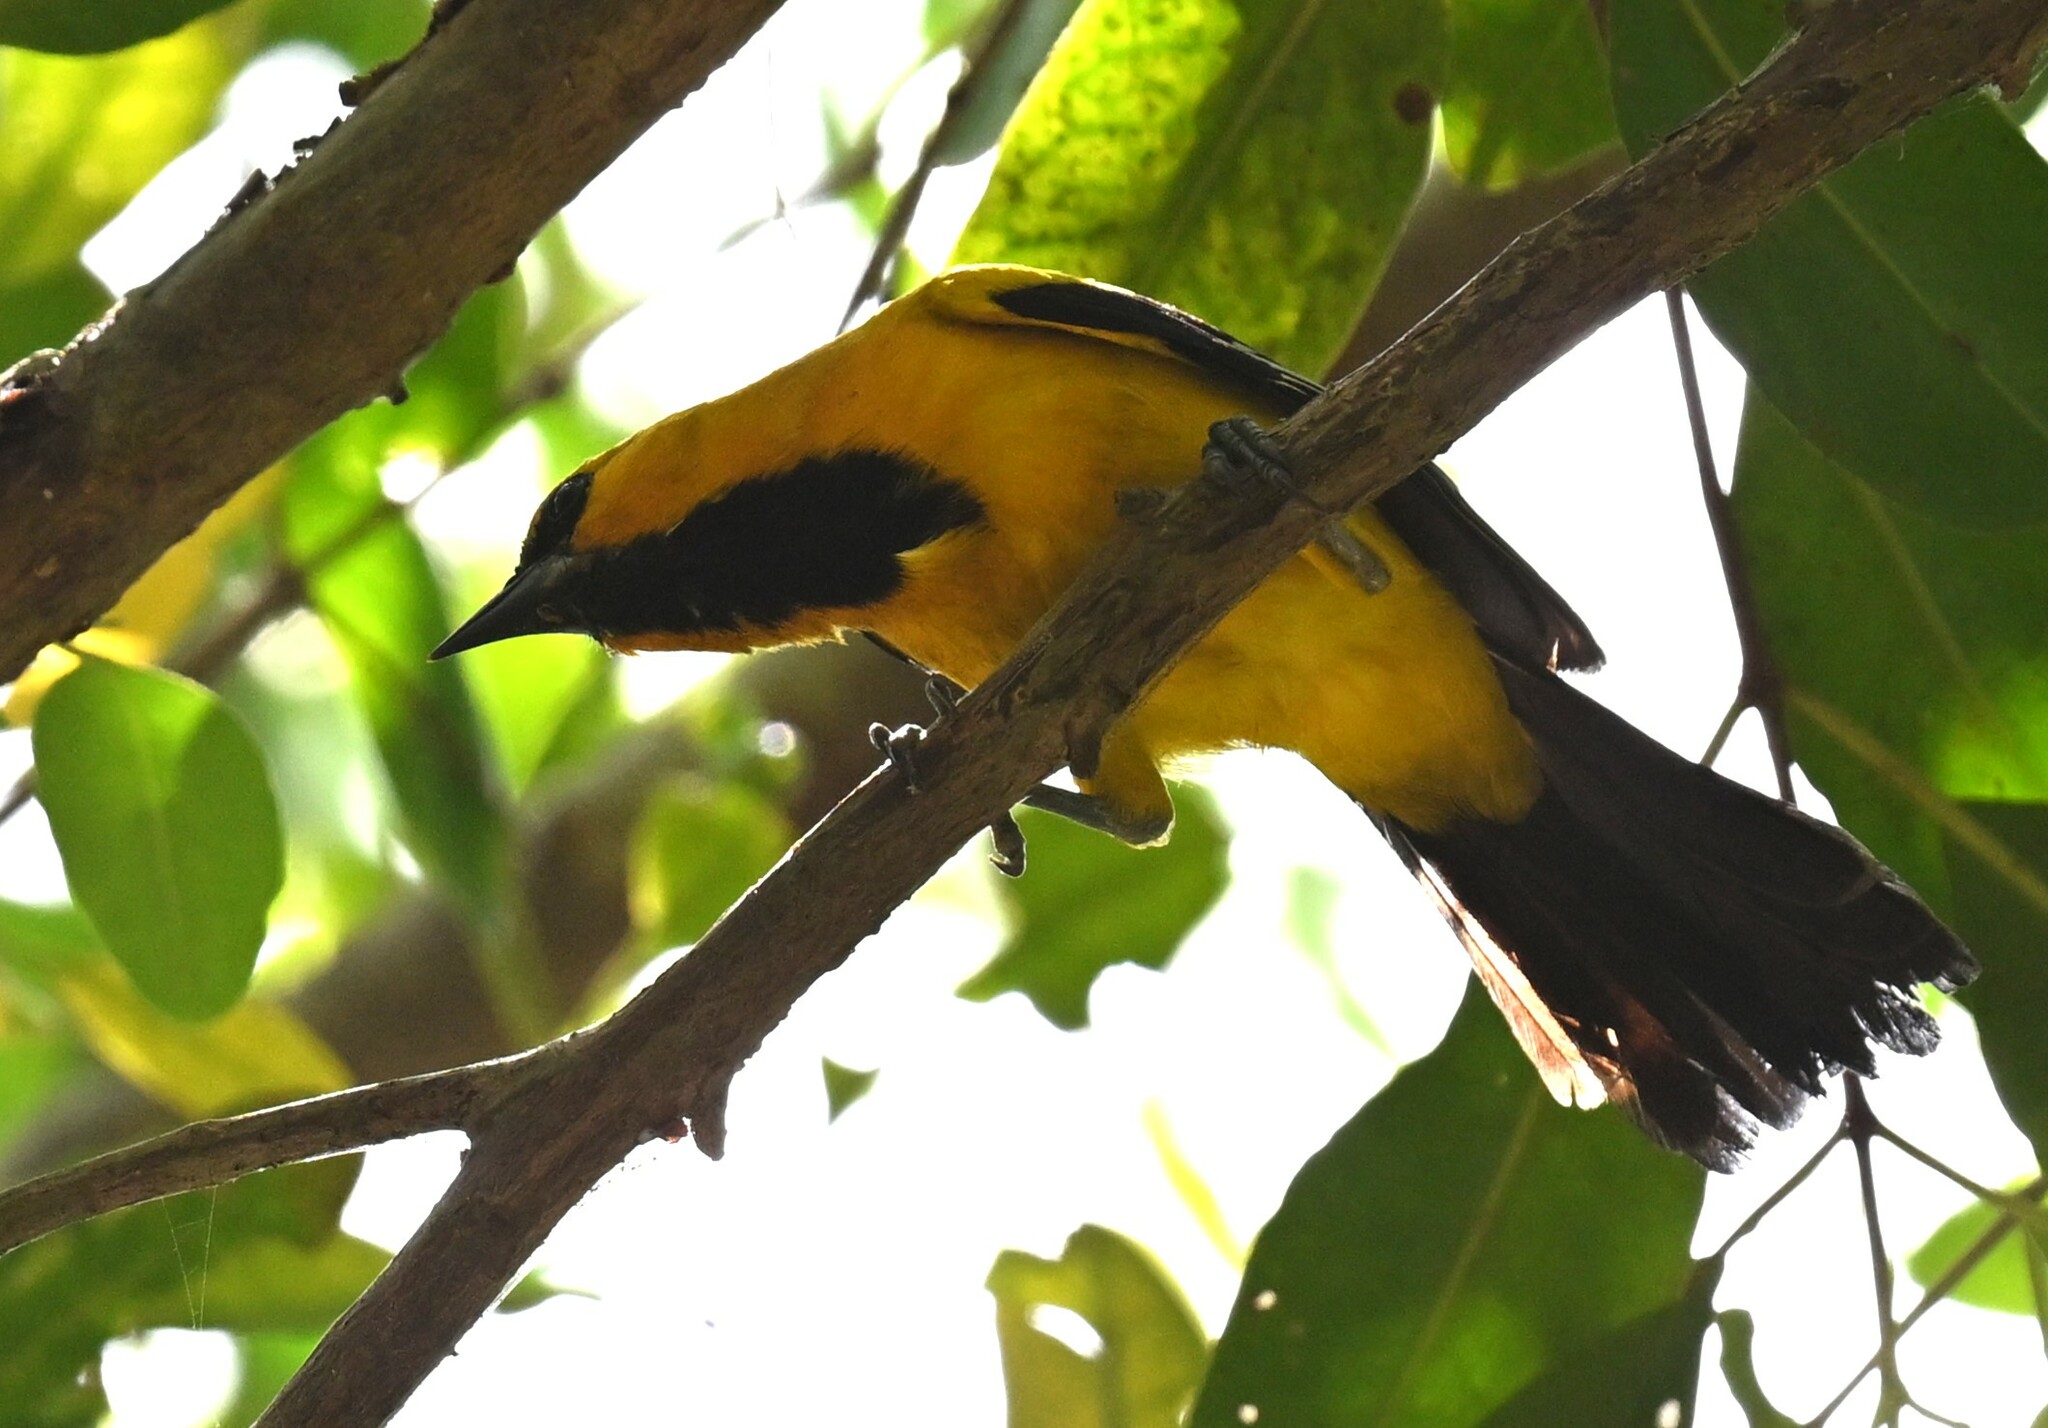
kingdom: Animalia
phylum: Chordata
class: Aves
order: Passeriformes
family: Icteridae
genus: Icterus
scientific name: Icterus nigrogularis
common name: Yellow oriole
